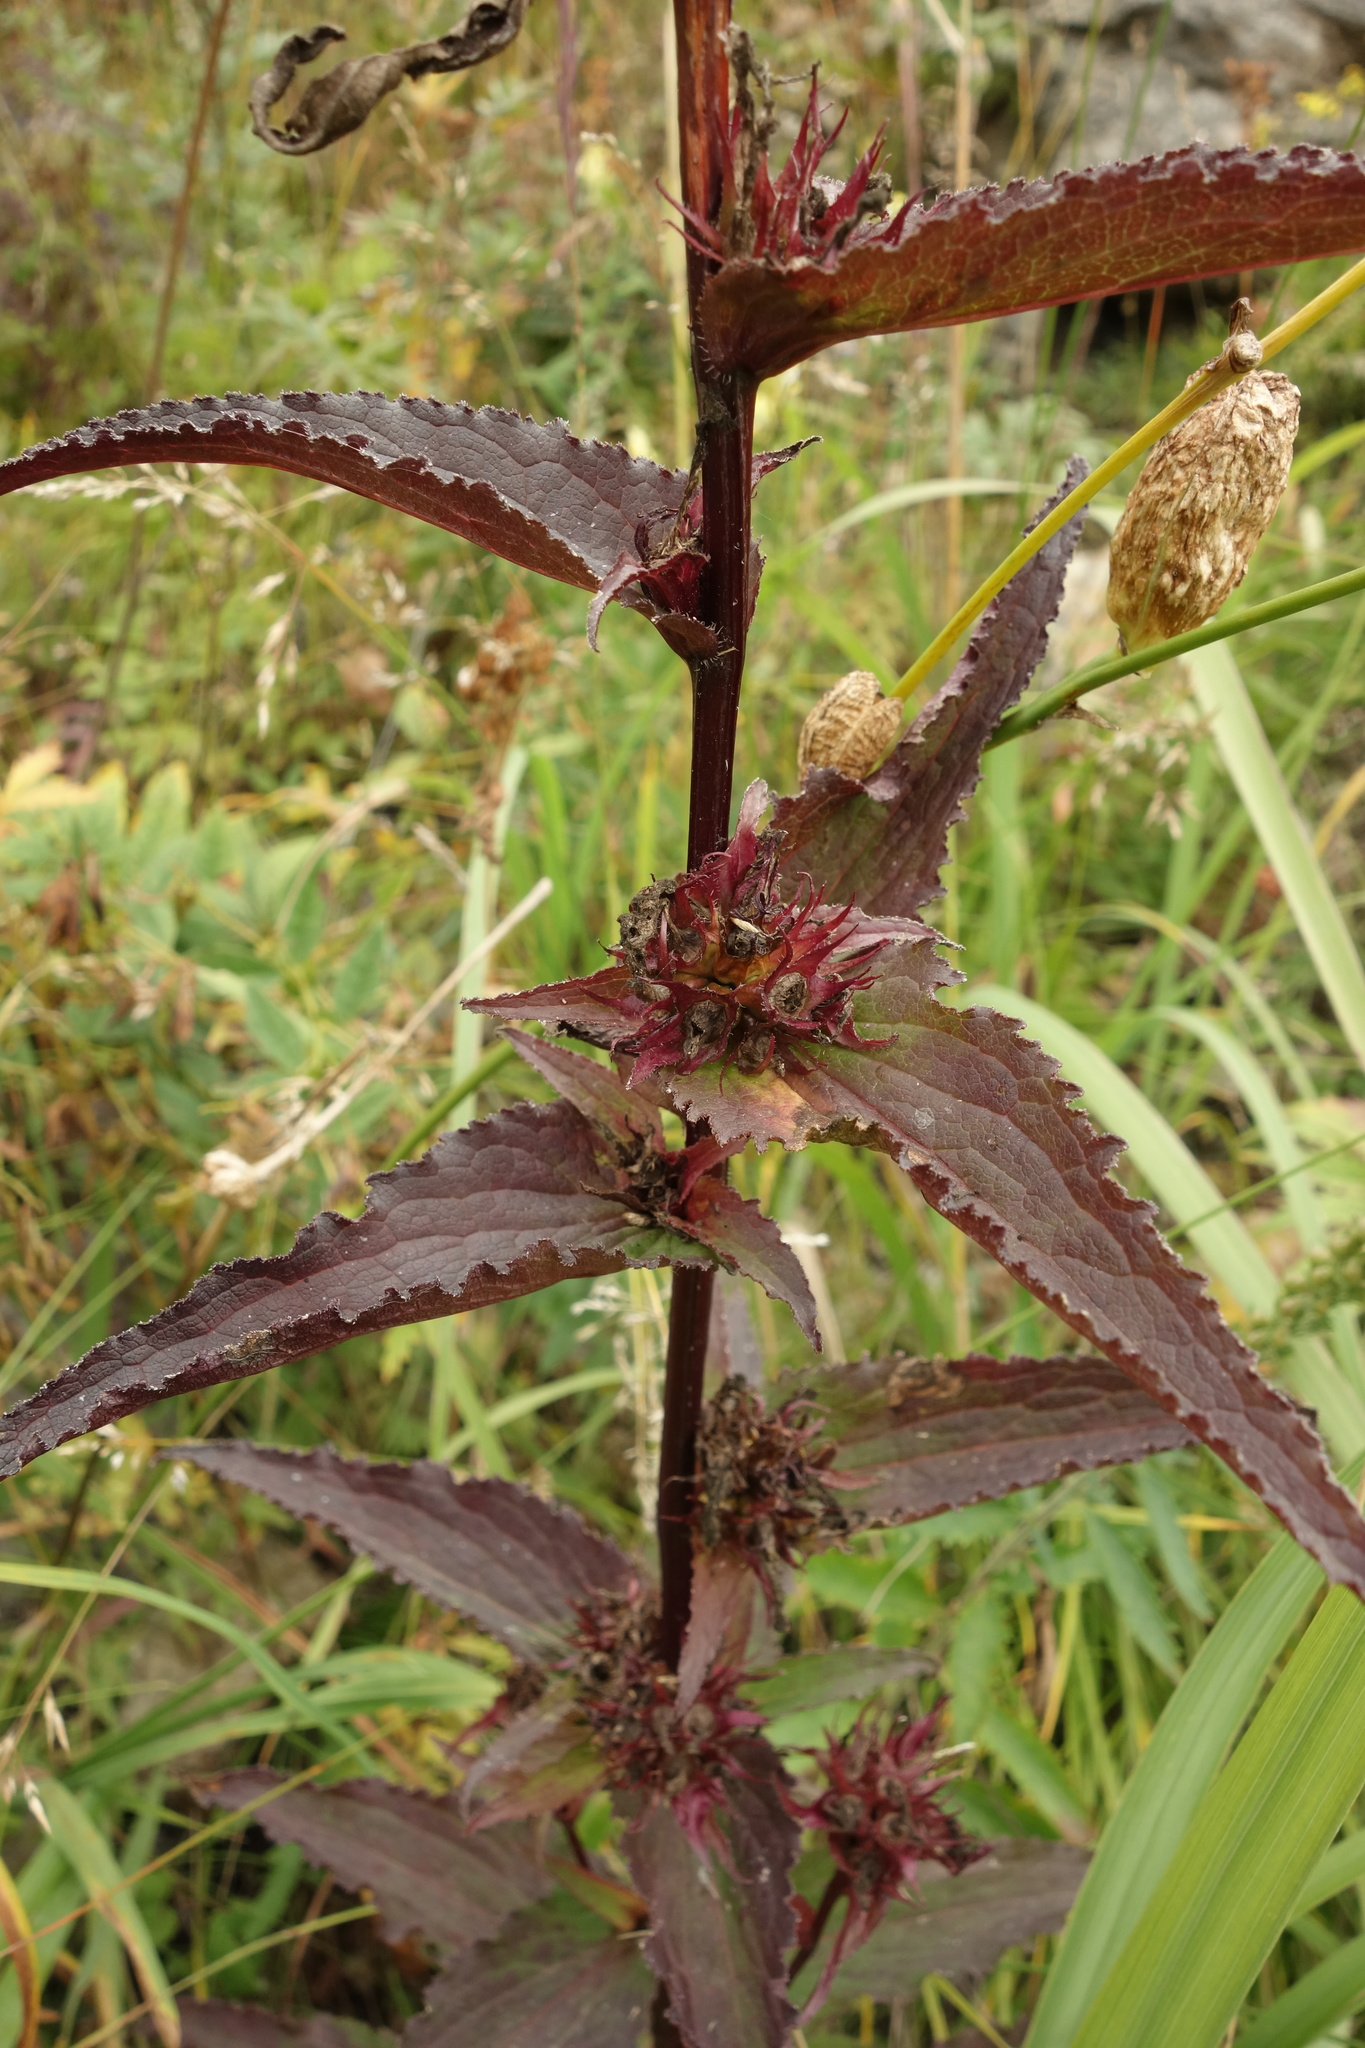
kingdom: Plantae
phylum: Tracheophyta
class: Magnoliopsida
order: Asterales
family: Campanulaceae
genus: Campanula
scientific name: Campanula glomerata
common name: Clustered bellflower
